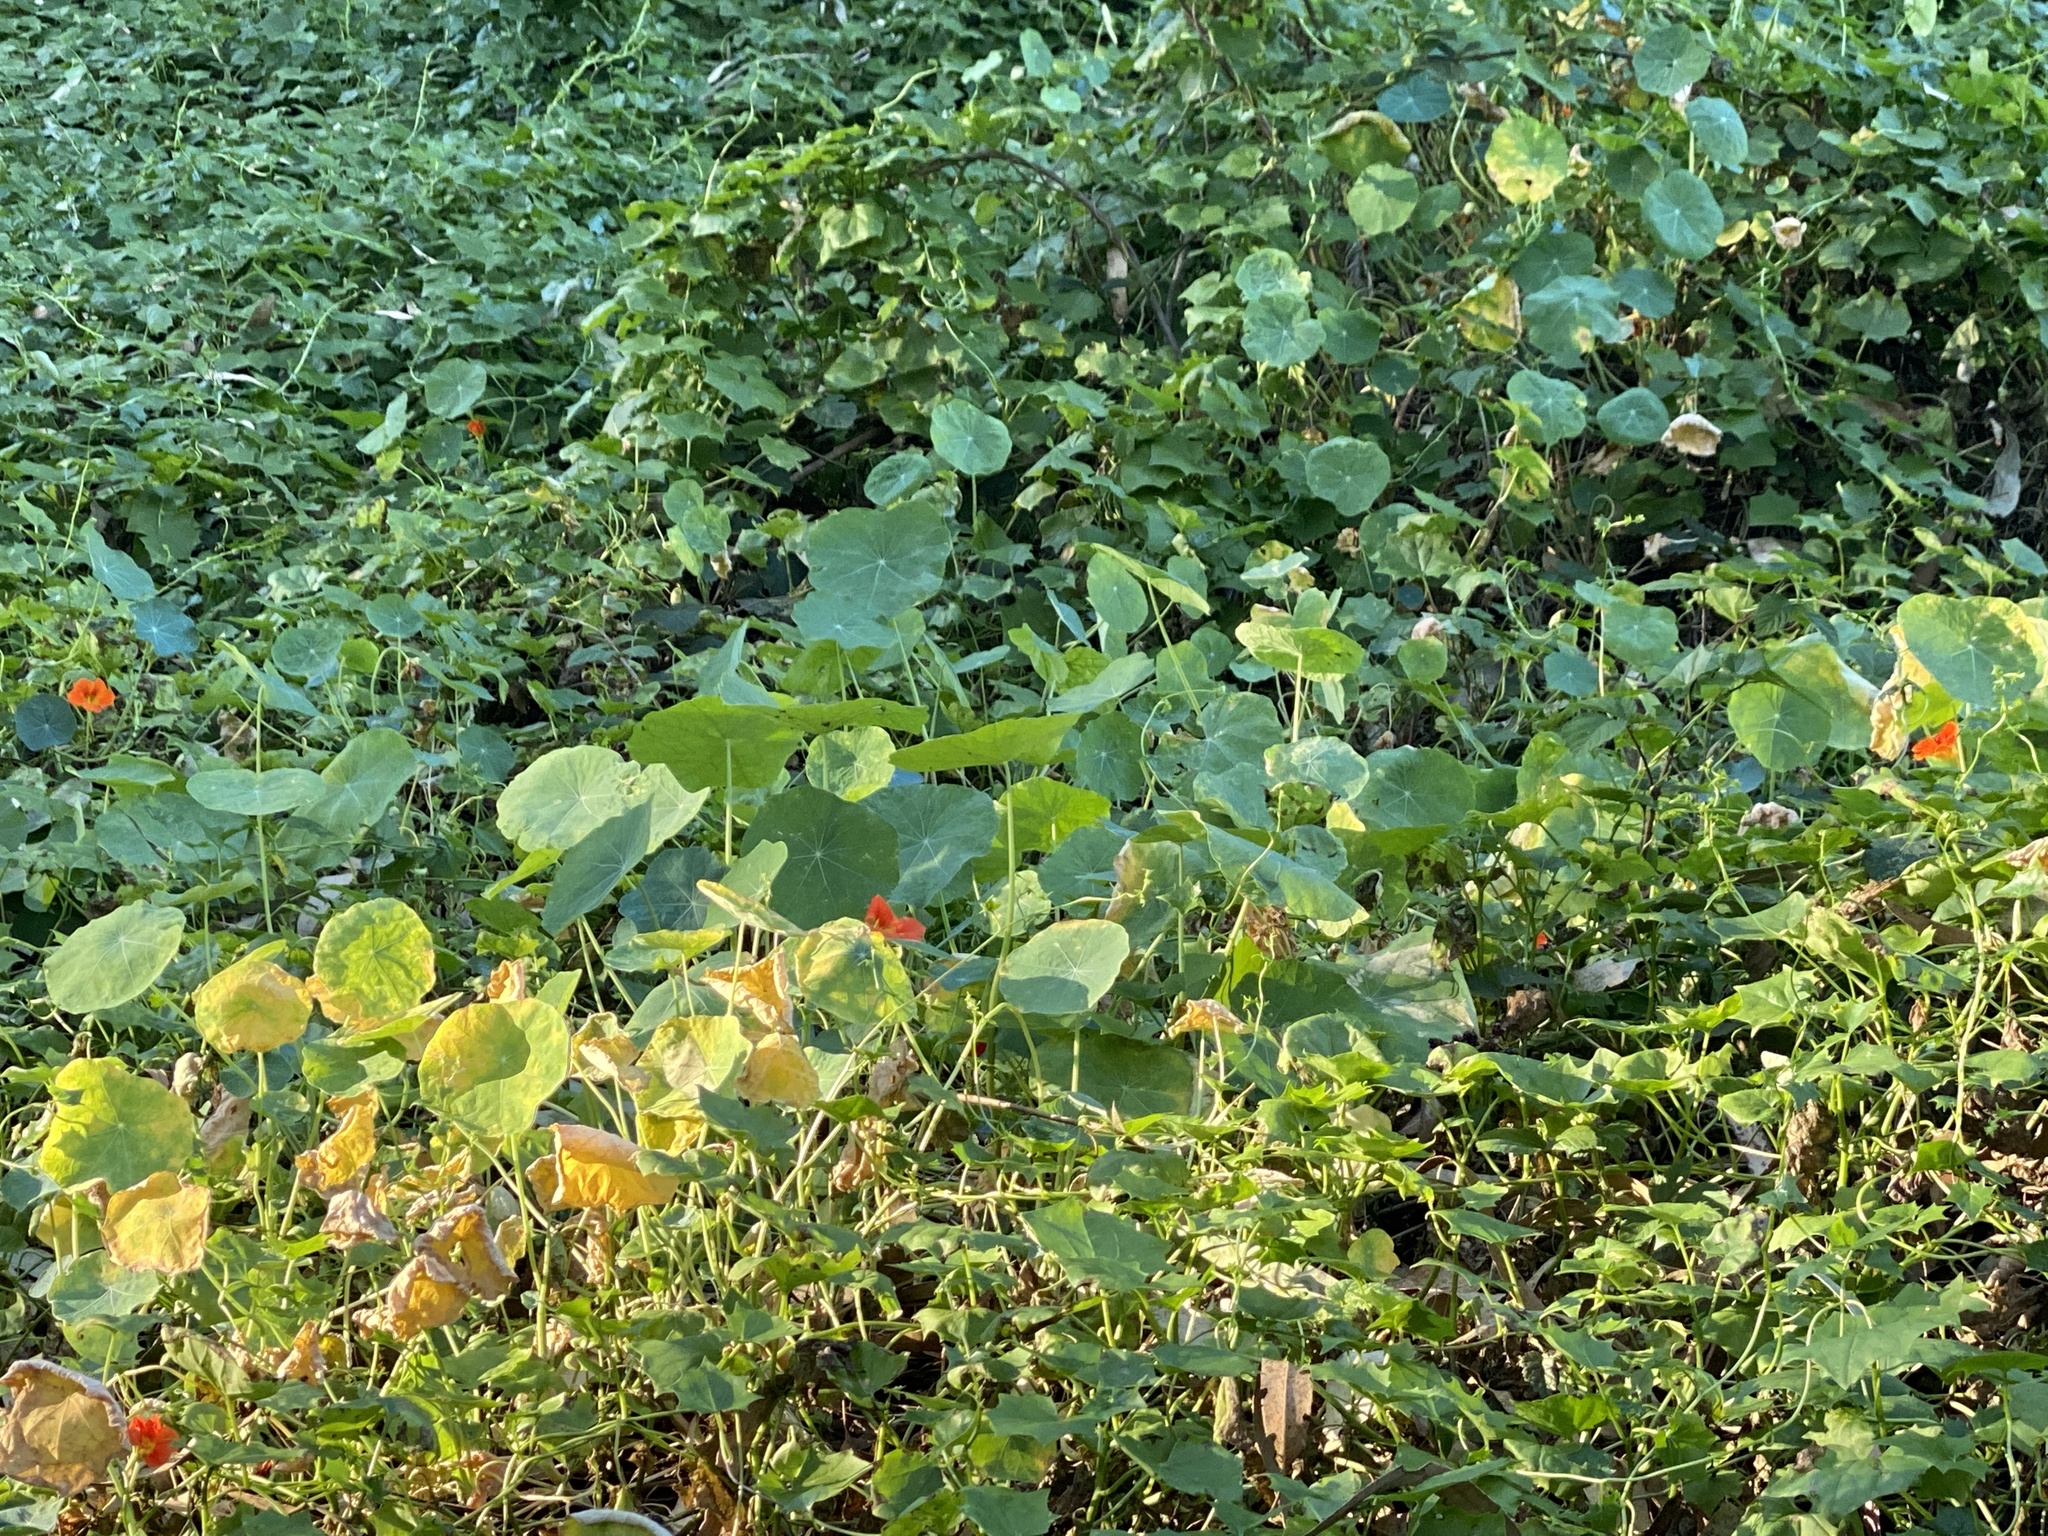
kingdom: Plantae
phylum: Tracheophyta
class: Magnoliopsida
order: Brassicales
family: Tropaeolaceae
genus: Tropaeolum
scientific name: Tropaeolum majus
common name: Nasturtium
